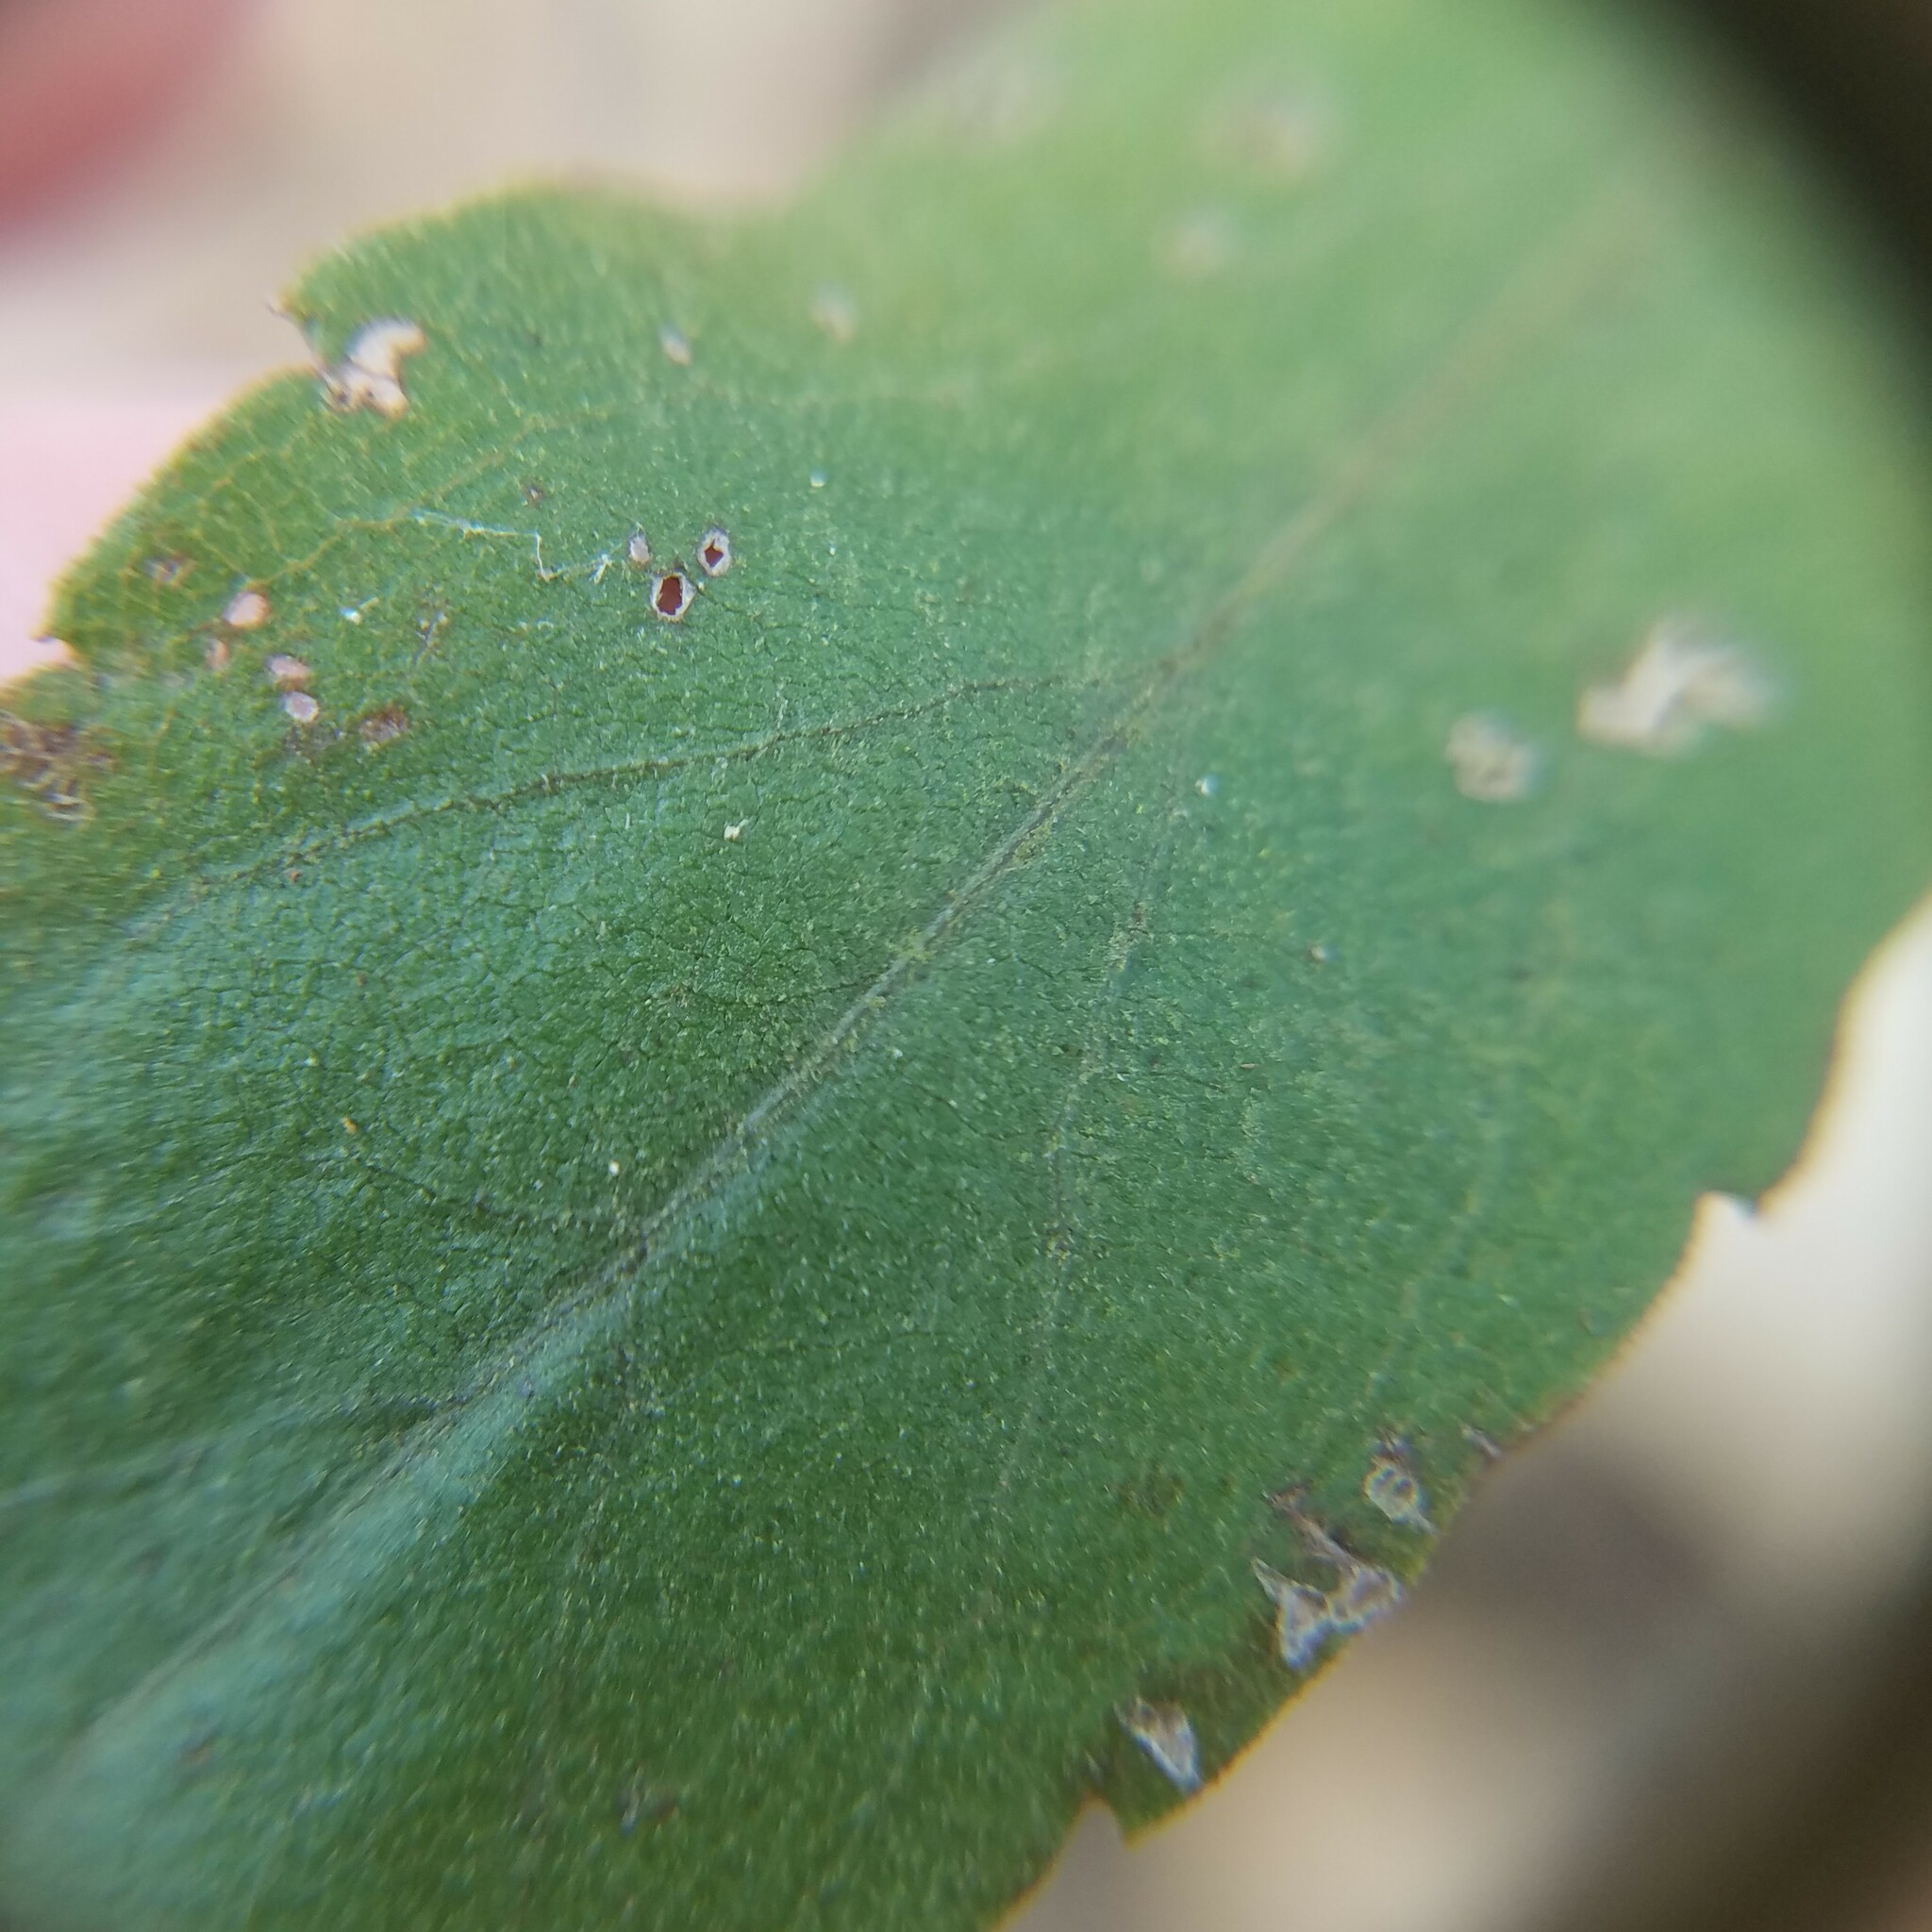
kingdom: Plantae
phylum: Tracheophyta
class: Magnoliopsida
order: Asterales
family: Asteraceae
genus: Solidago
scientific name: Solidago nemoralis
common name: Grey goldenrod
